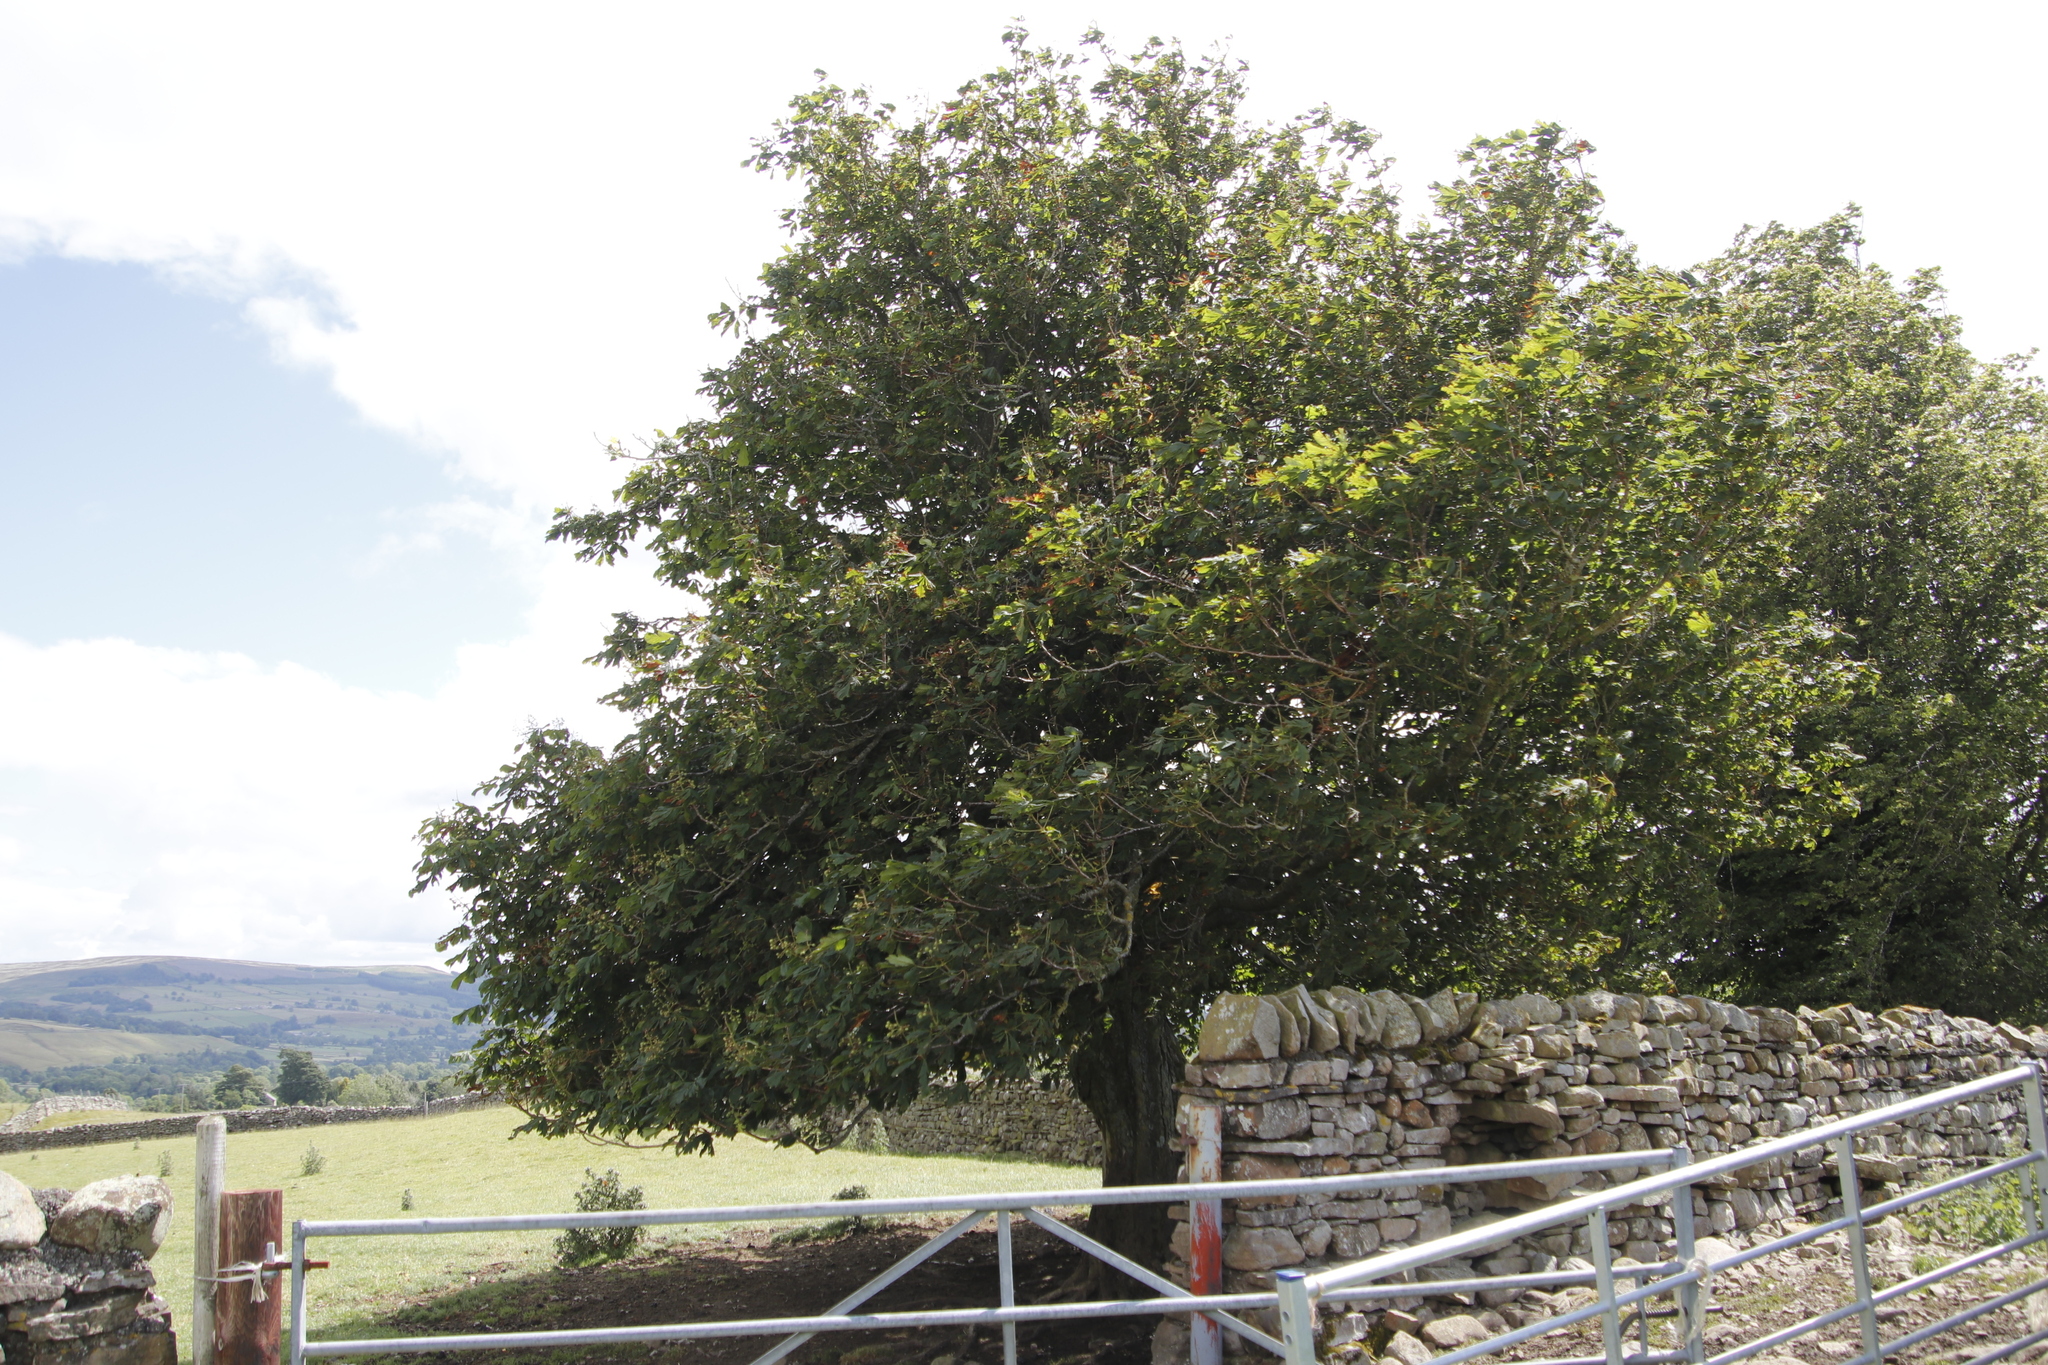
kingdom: Plantae
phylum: Tracheophyta
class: Magnoliopsida
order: Sapindales
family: Sapindaceae
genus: Aesculus
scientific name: Aesculus hippocastanum
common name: Horse-chestnut
